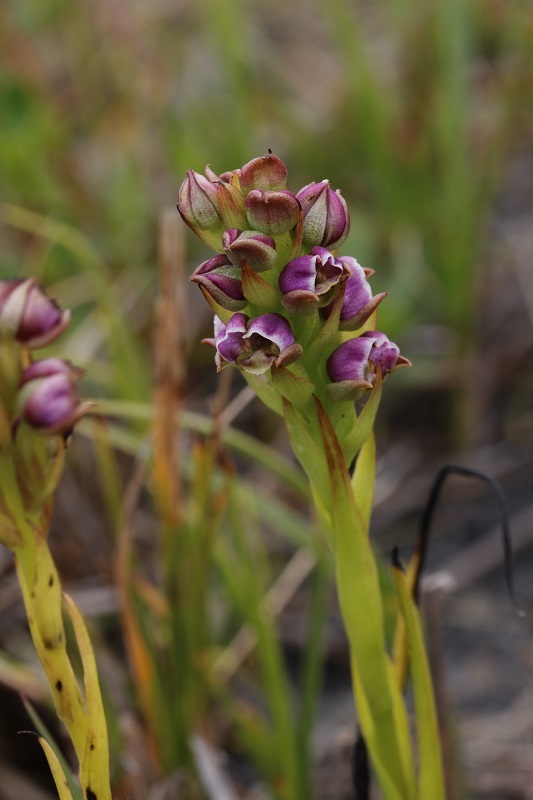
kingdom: Plantae
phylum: Tracheophyta
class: Liliopsida
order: Asparagales
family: Orchidaceae
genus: Evotella
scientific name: Evotella carnosa
